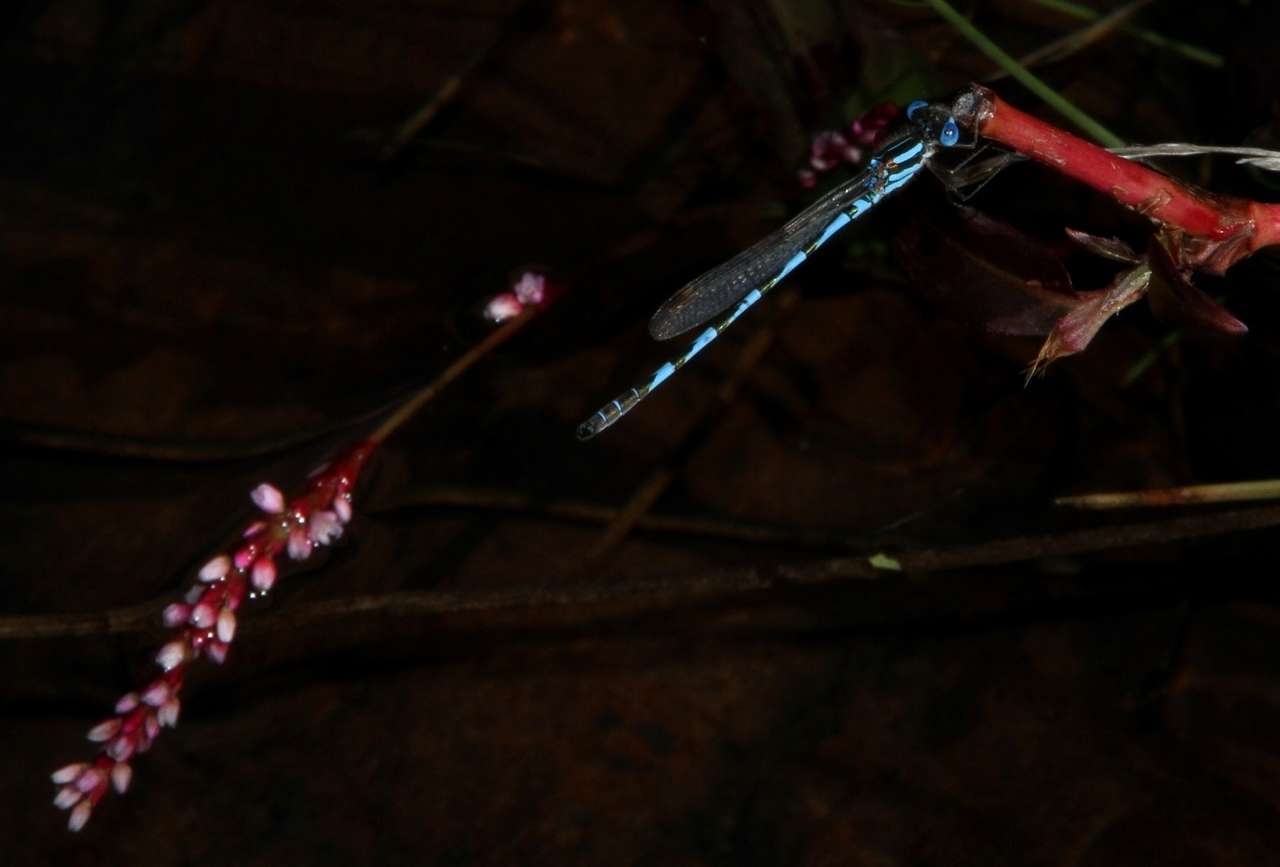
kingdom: Animalia
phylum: Arthropoda
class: Insecta
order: Odonata
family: Lestidae
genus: Austrolestes
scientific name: Austrolestes annulosus
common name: Blue ringtail
